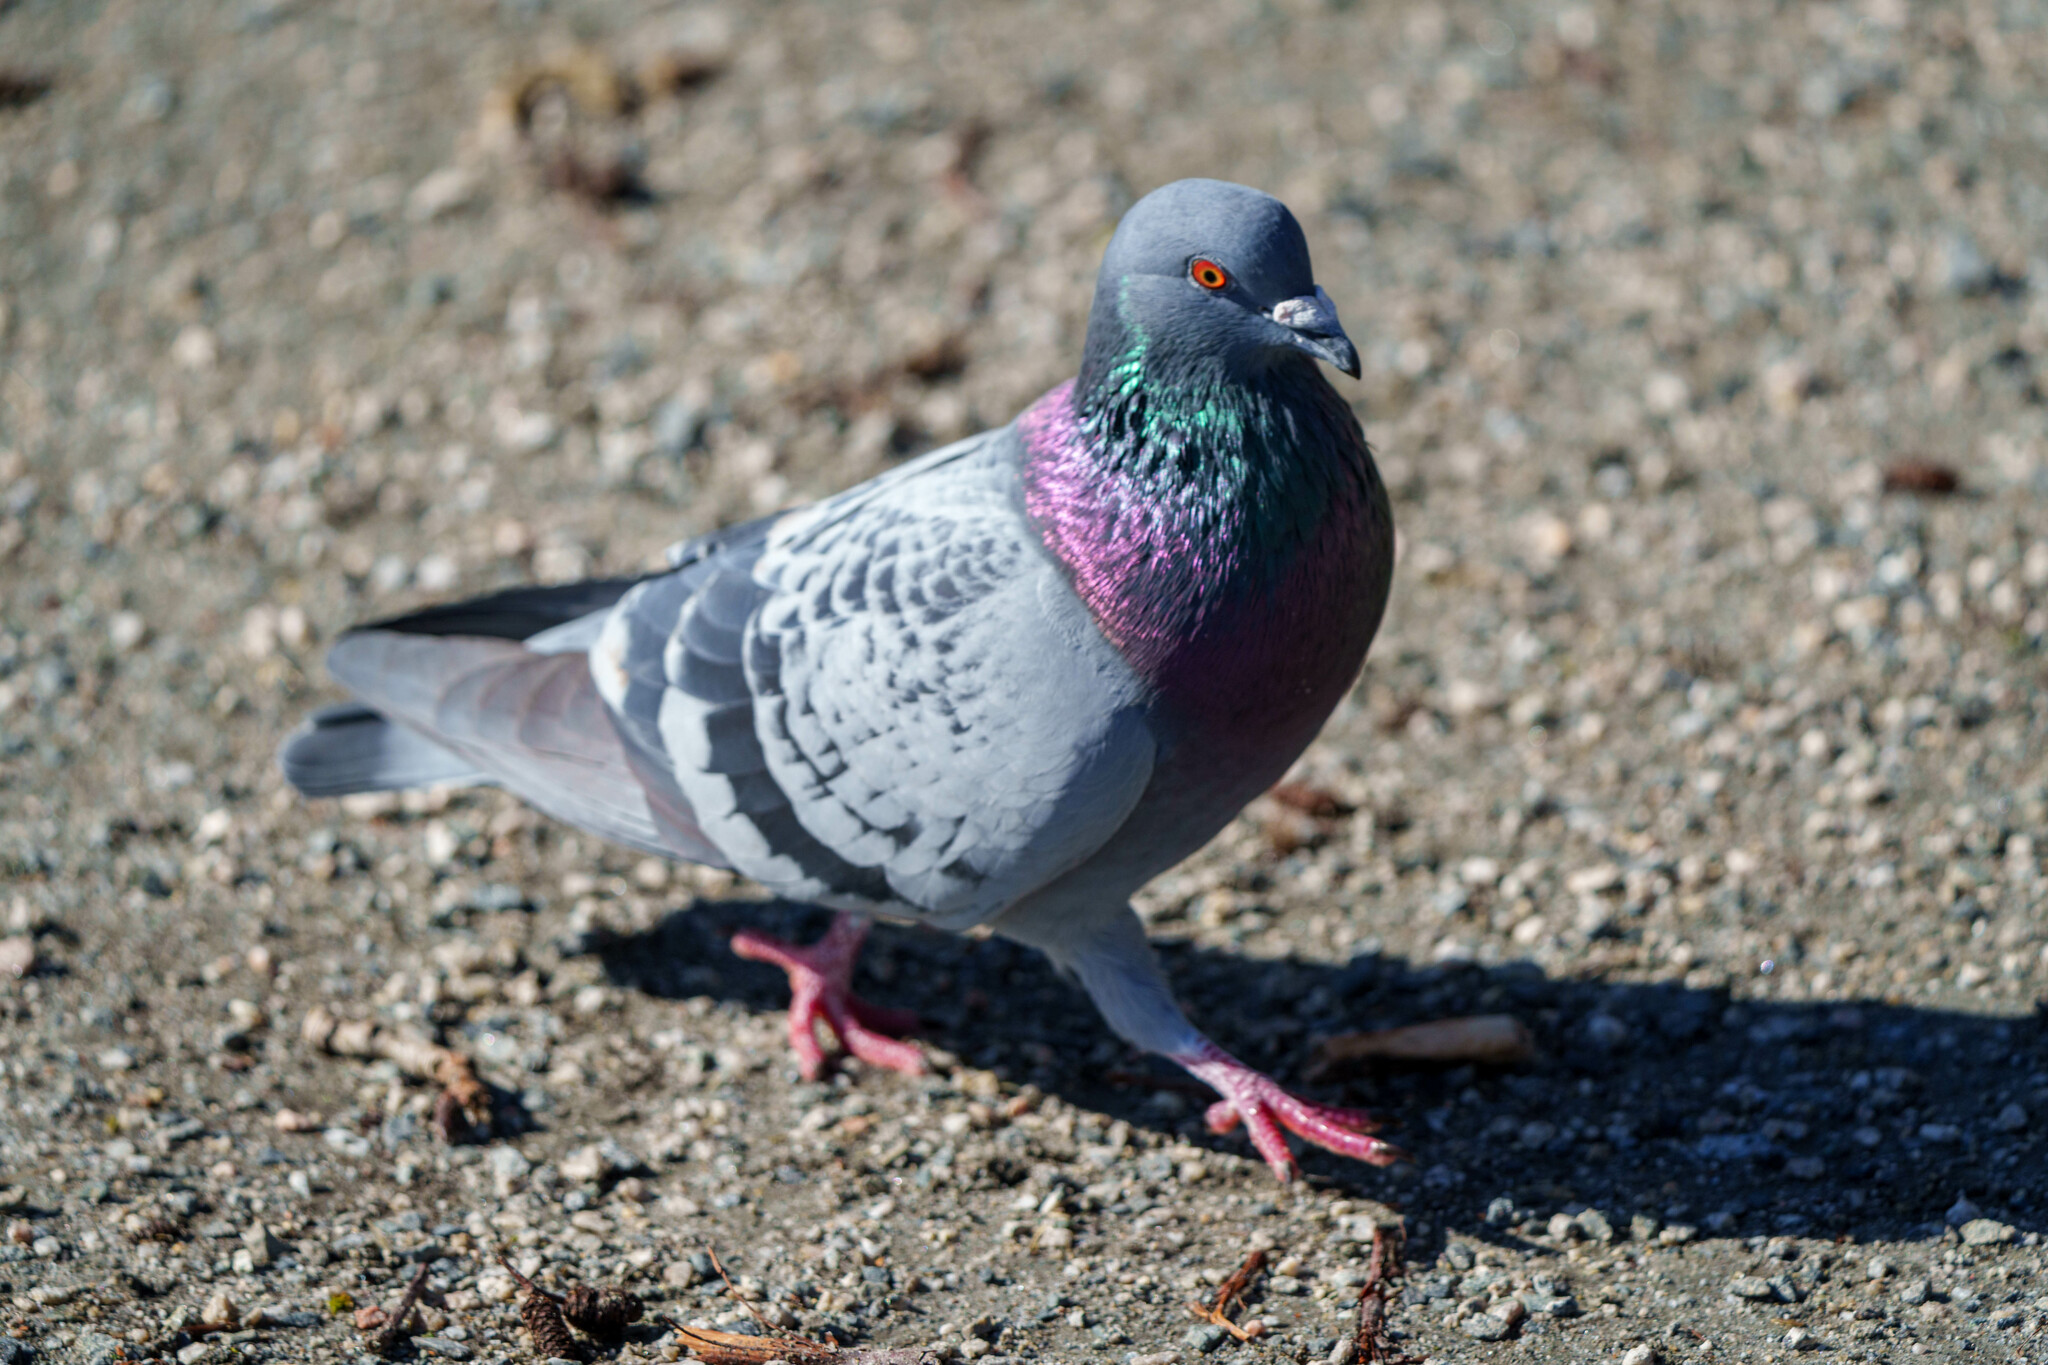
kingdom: Animalia
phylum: Chordata
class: Aves
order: Columbiformes
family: Columbidae
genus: Columba
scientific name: Columba livia
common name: Rock pigeon
